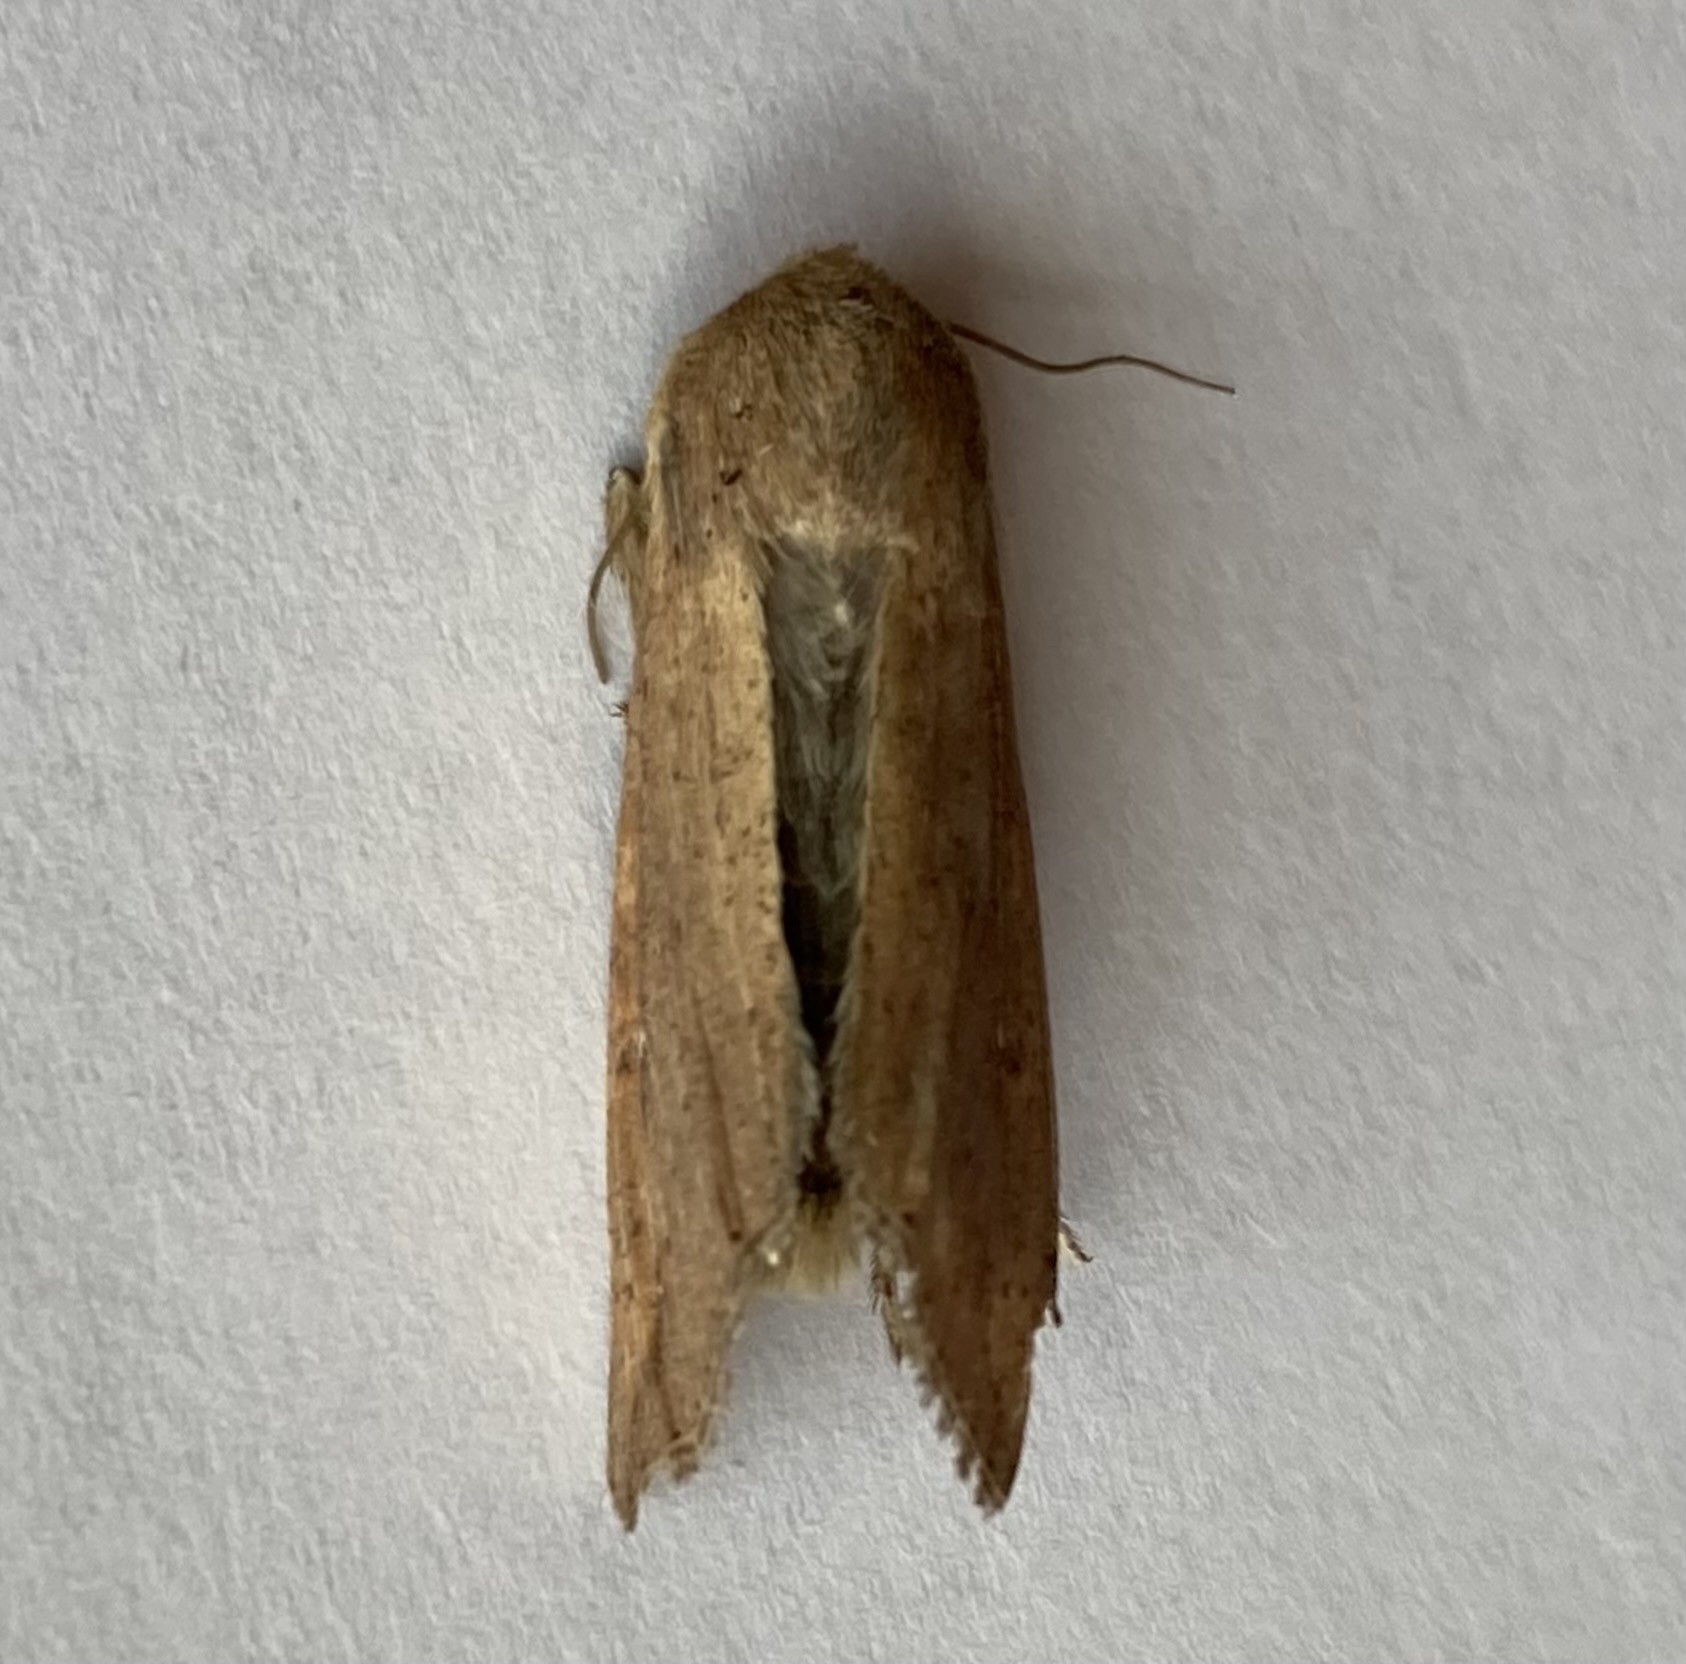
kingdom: Animalia
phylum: Arthropoda
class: Insecta
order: Lepidoptera
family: Noctuidae
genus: Mythimna
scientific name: Mythimna unipuncta
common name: White-speck
